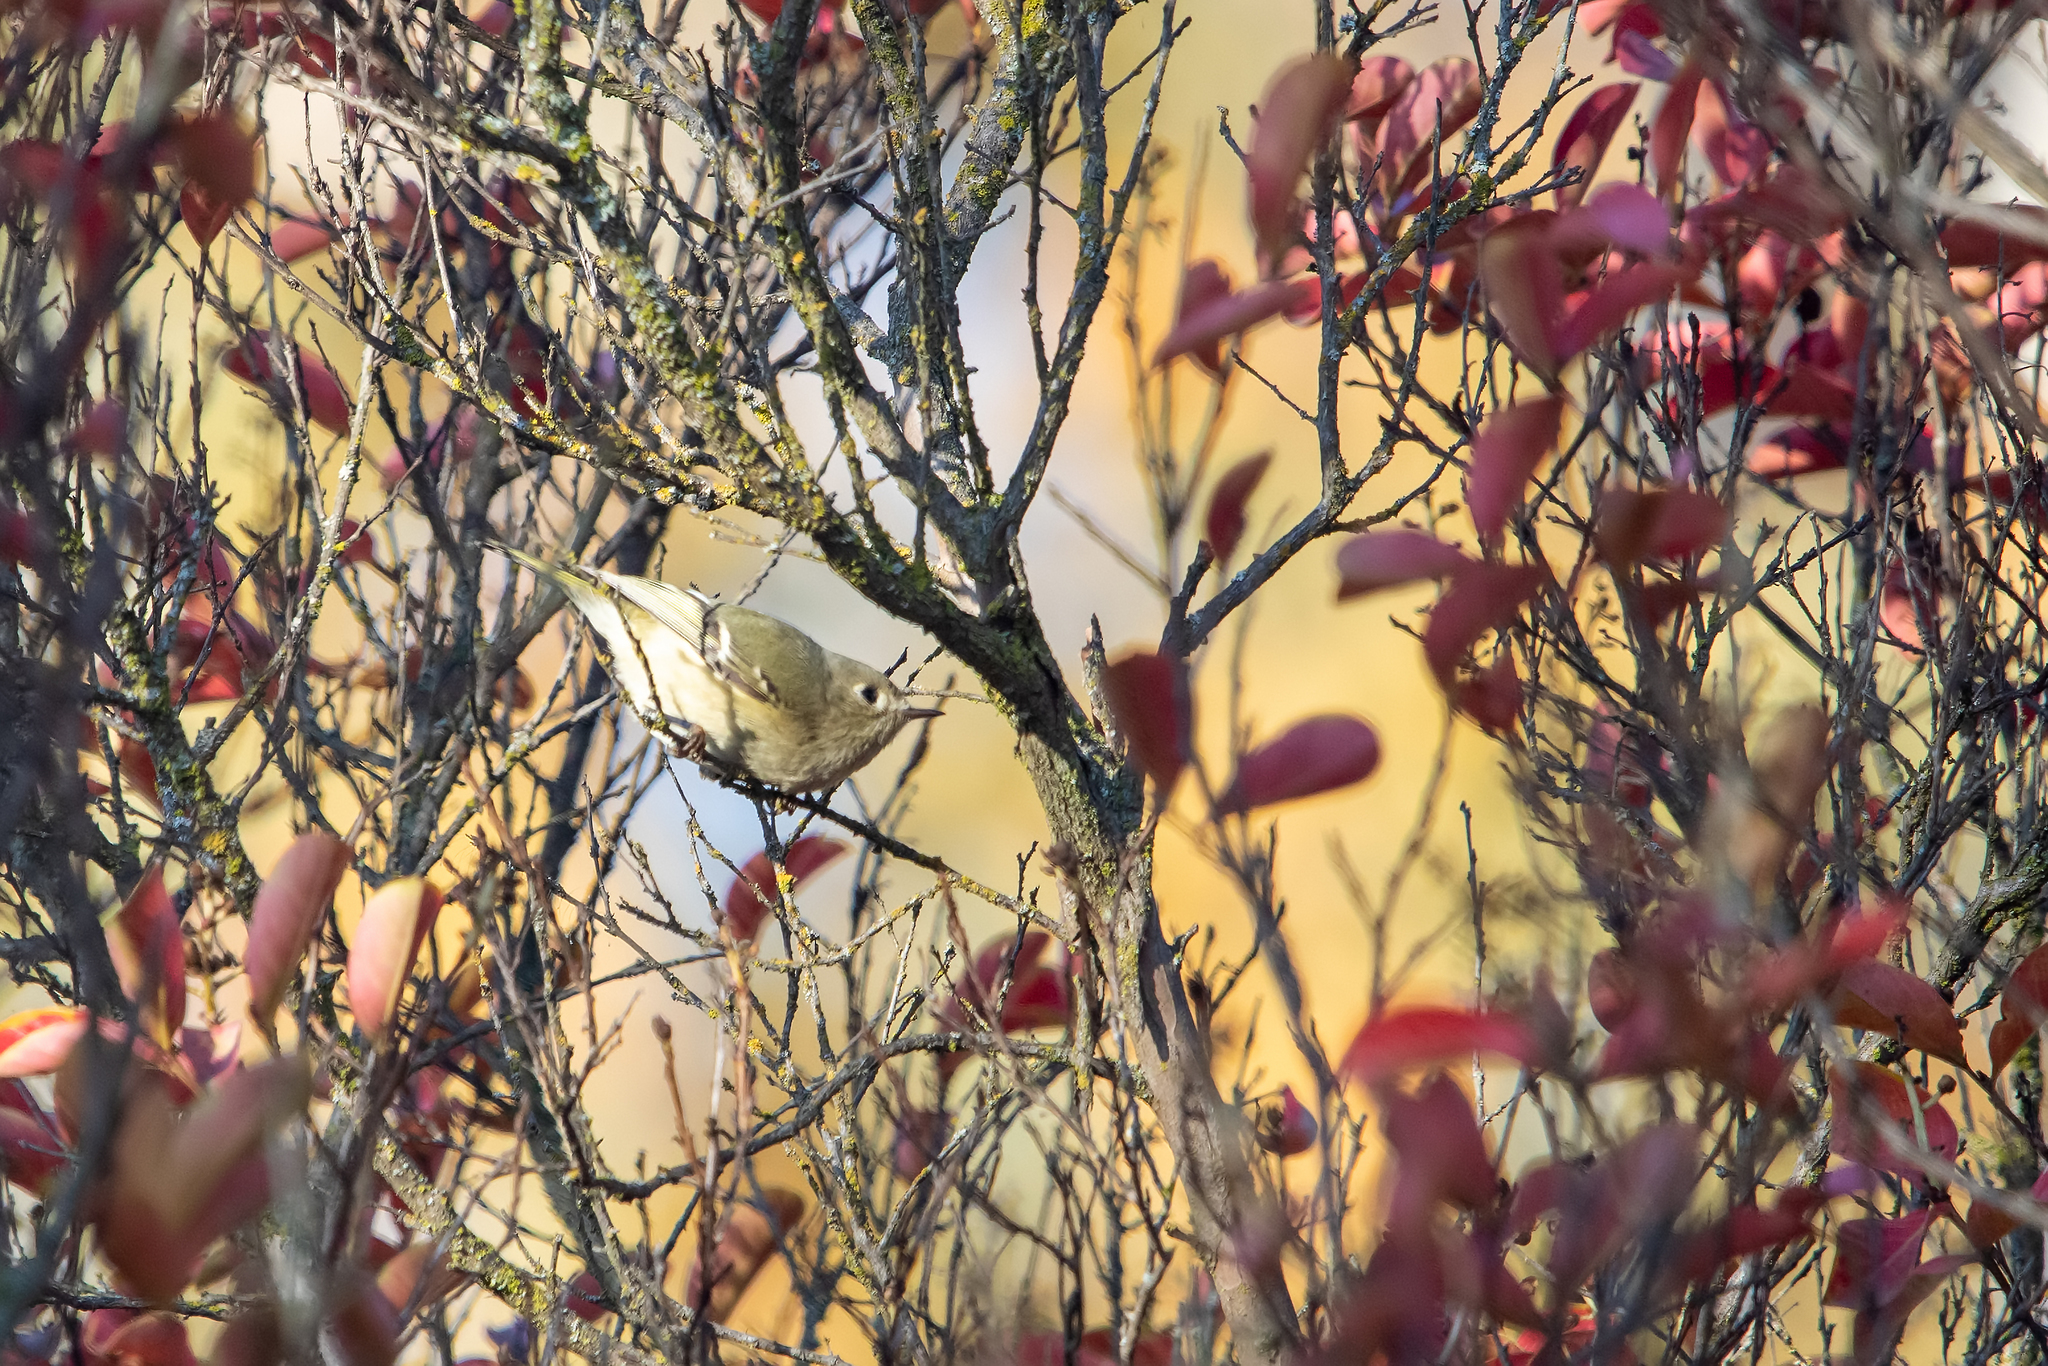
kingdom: Animalia
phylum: Chordata
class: Aves
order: Passeriformes
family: Regulidae
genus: Regulus
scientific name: Regulus calendula
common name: Ruby-crowned kinglet
